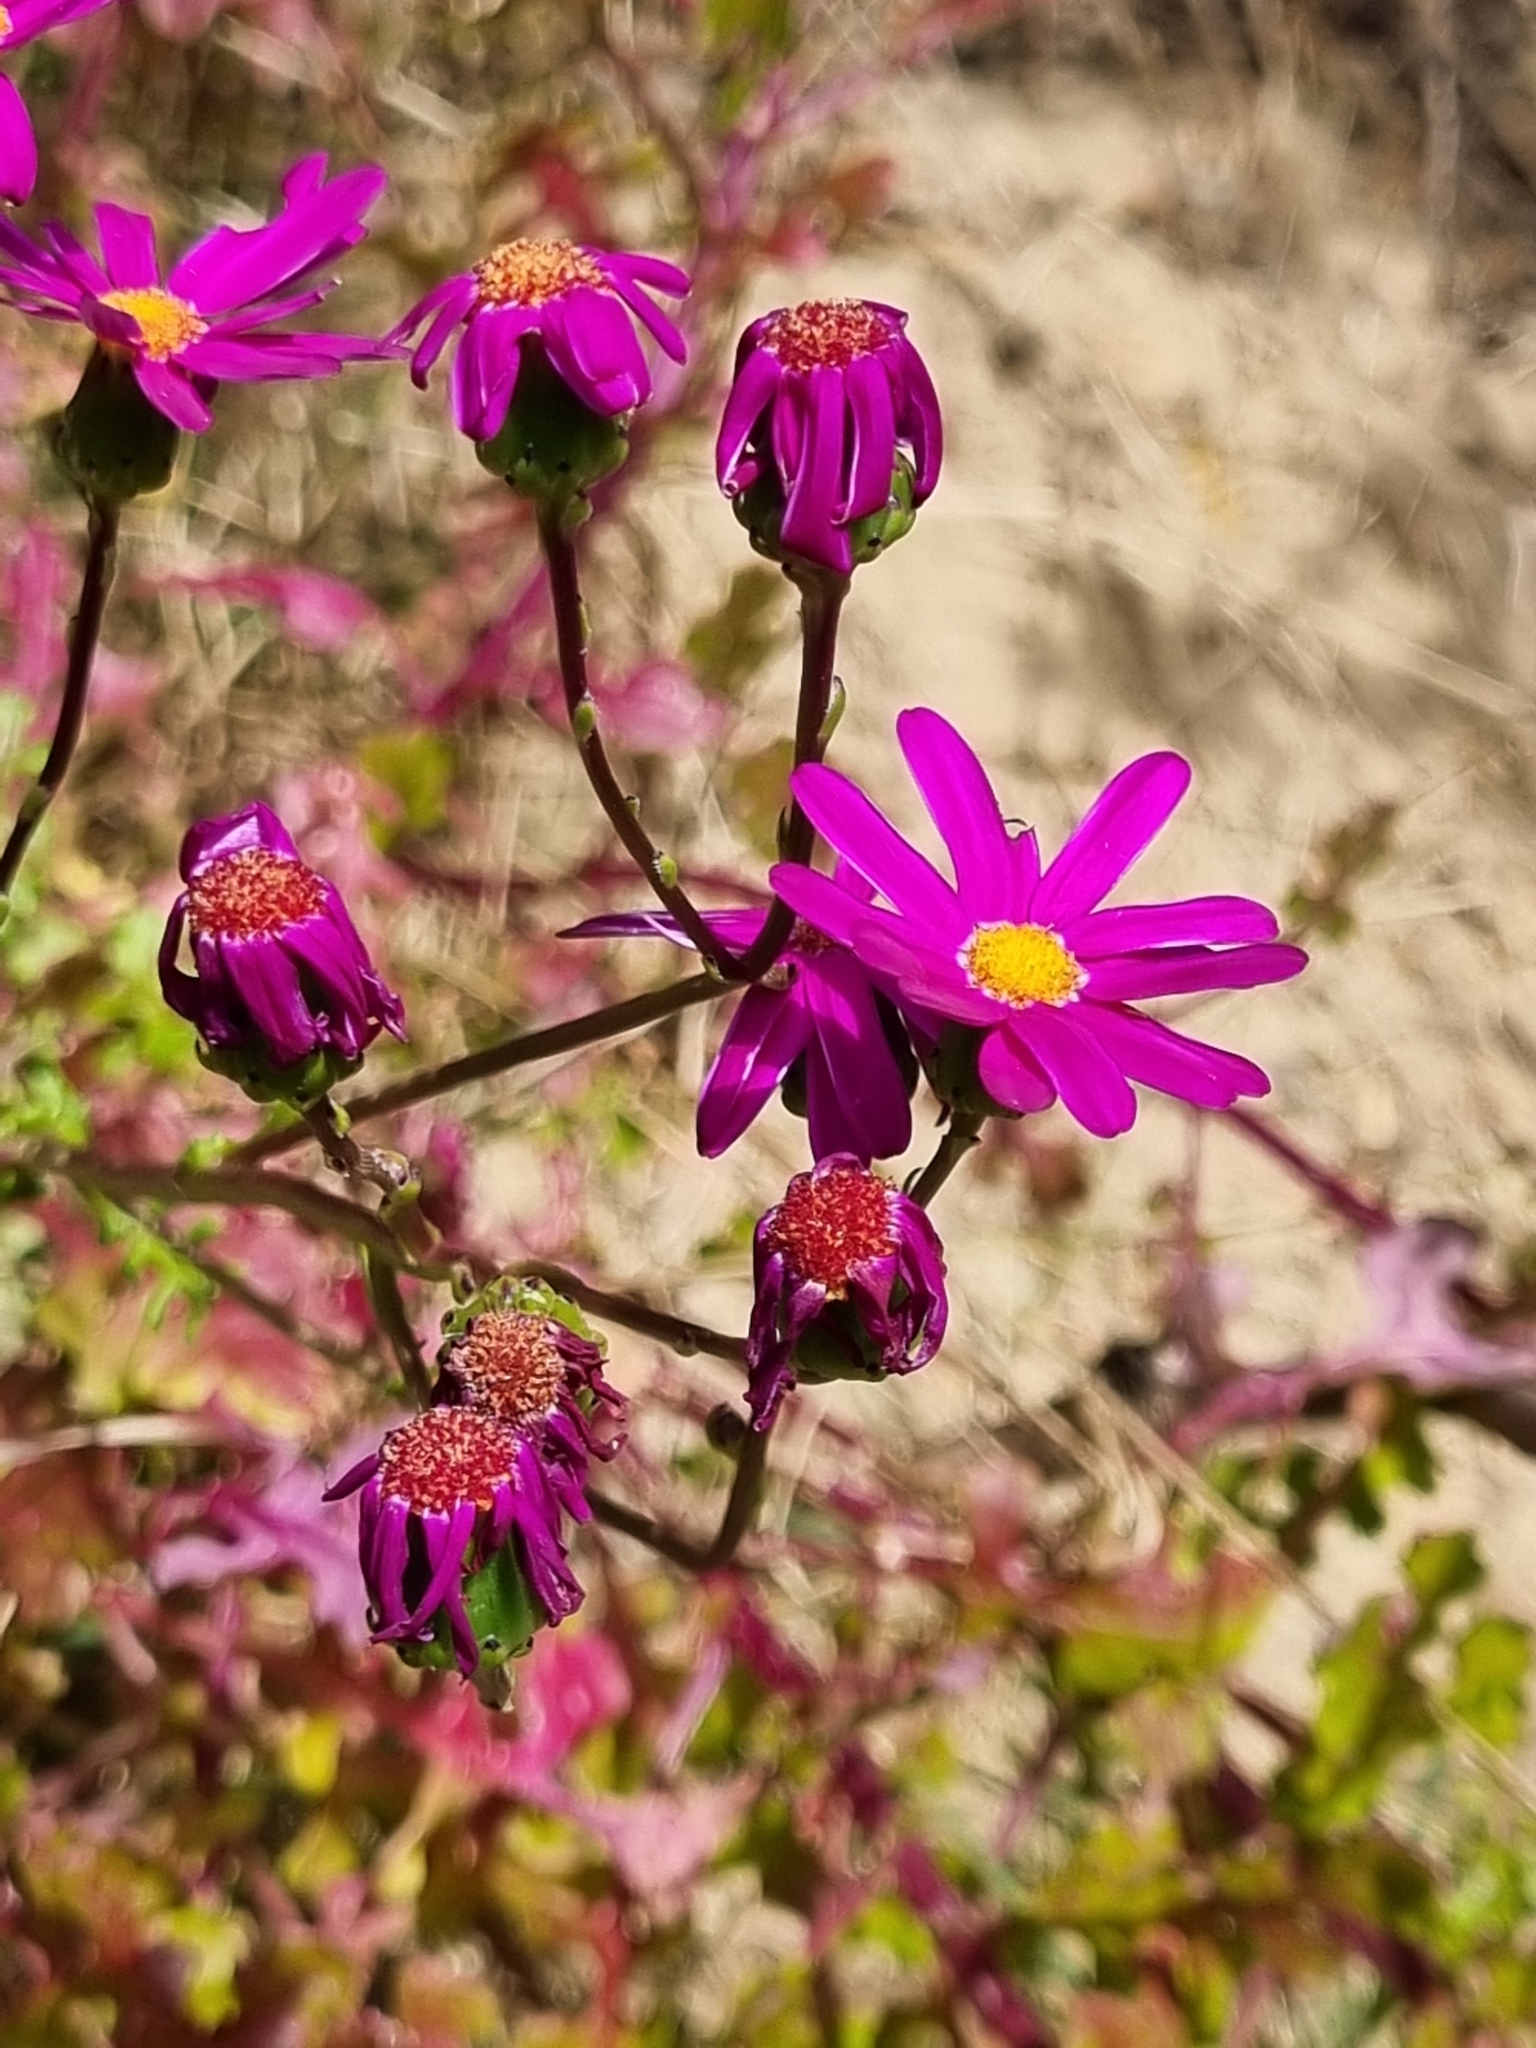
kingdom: Plantae
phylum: Tracheophyta
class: Magnoliopsida
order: Asterales
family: Asteraceae
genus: Senecio
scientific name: Senecio elegans
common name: Purple groundsel
